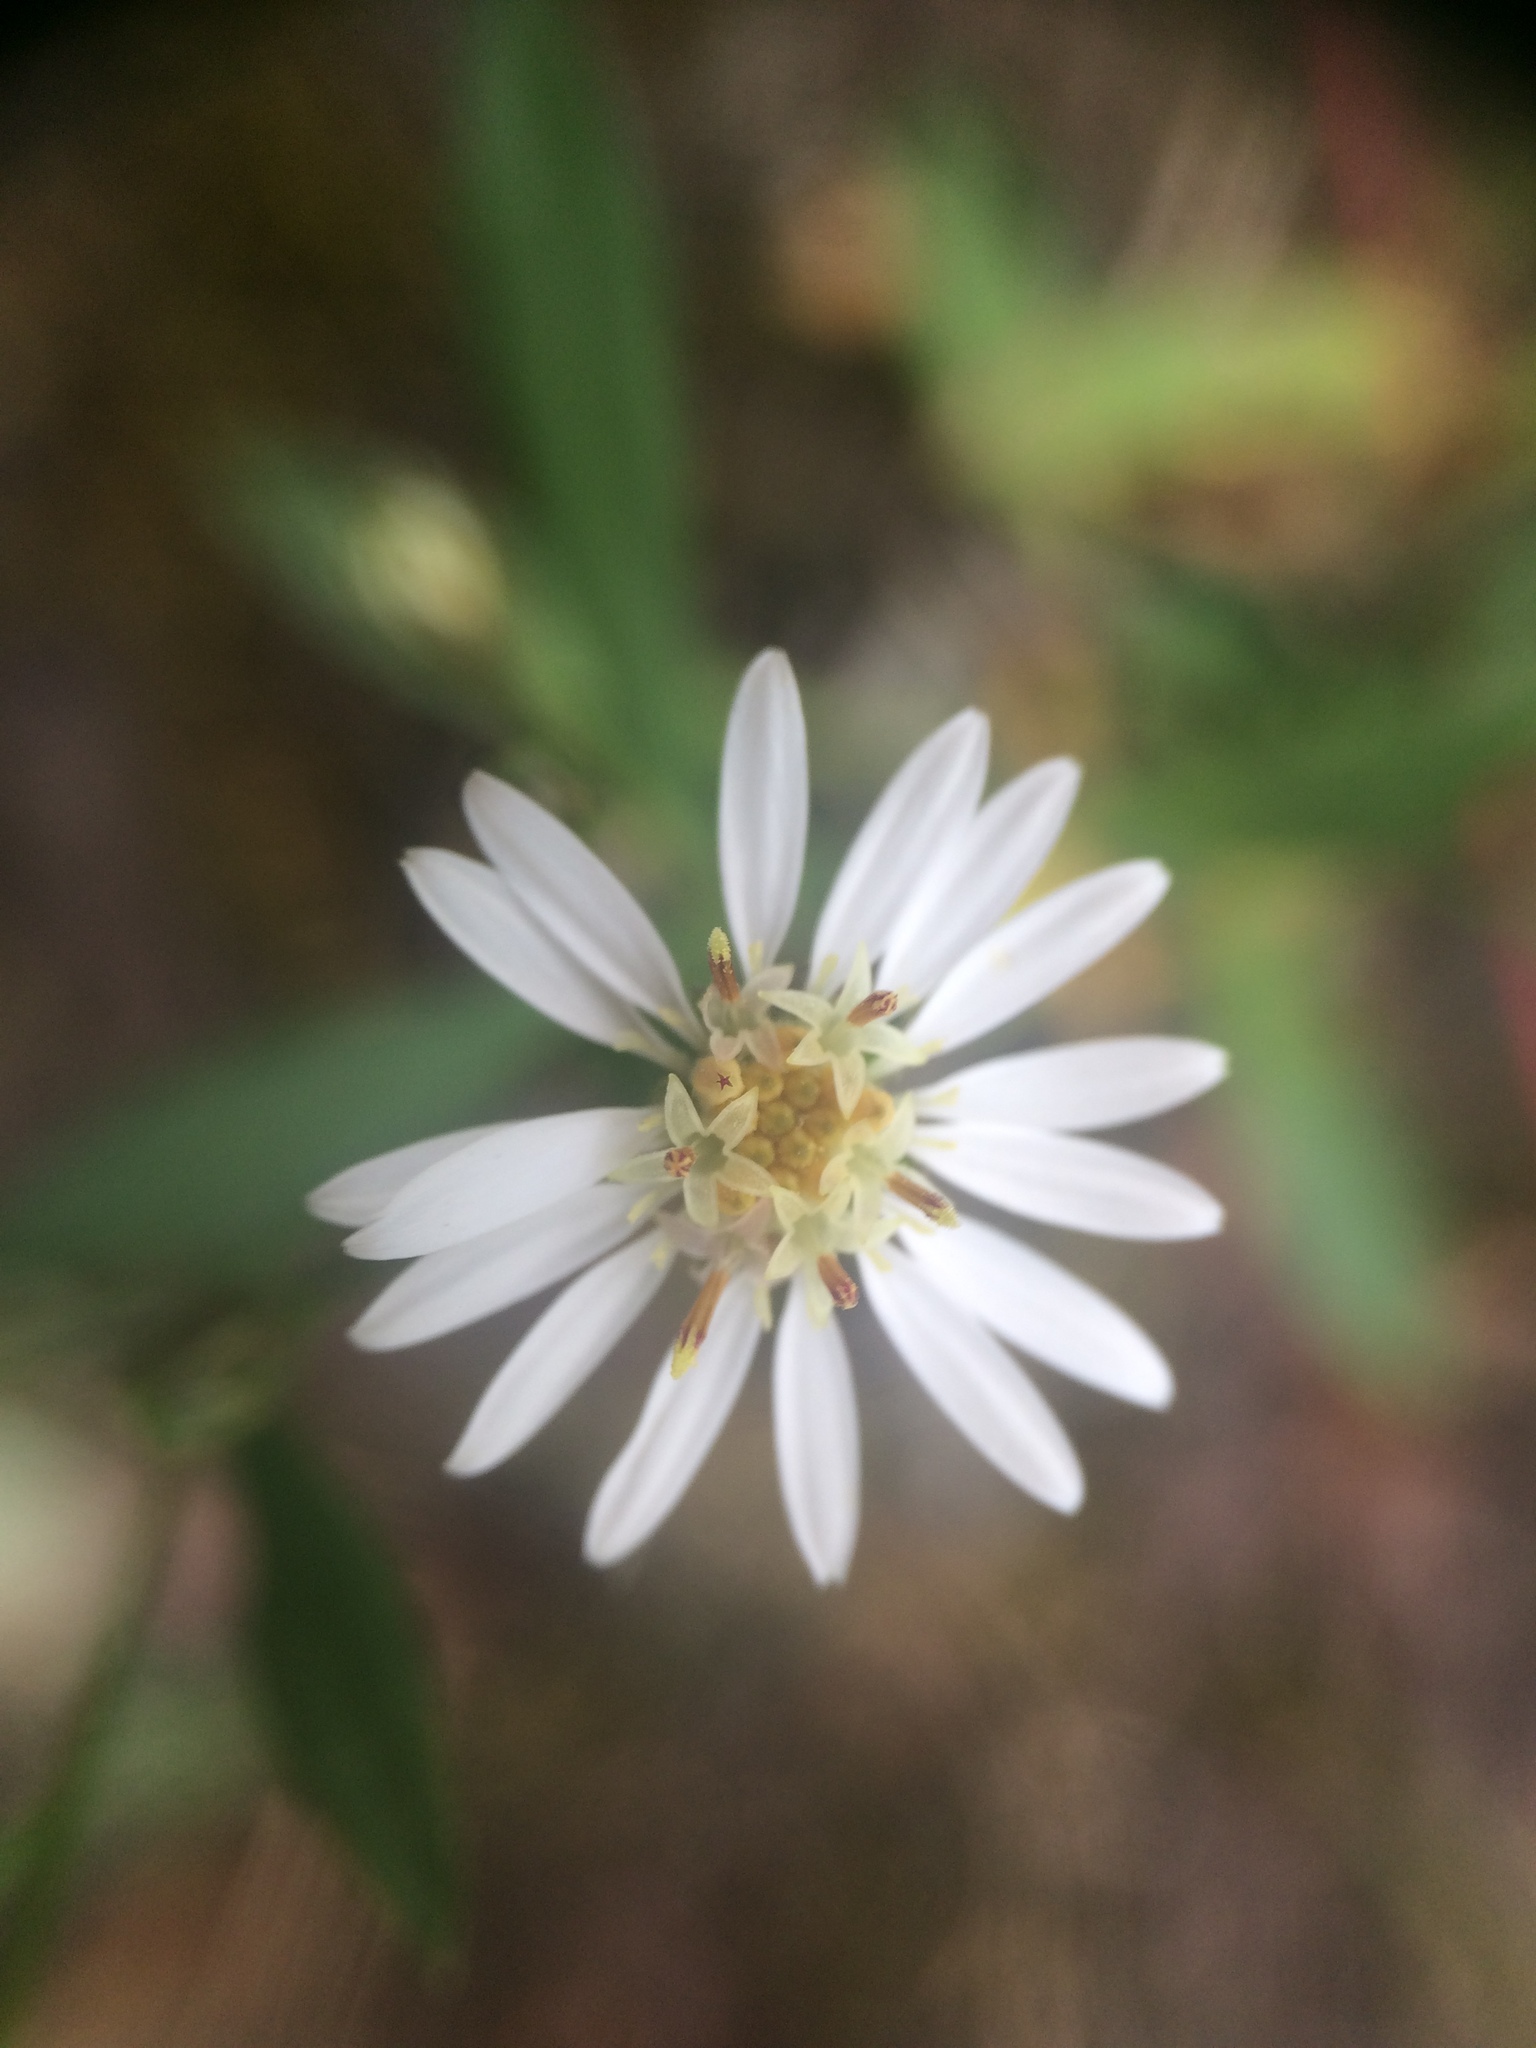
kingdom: Plantae
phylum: Tracheophyta
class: Magnoliopsida
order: Asterales
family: Asteraceae
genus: Symphyotrichum
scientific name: Symphyotrichum tradescantii
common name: Shore aster
